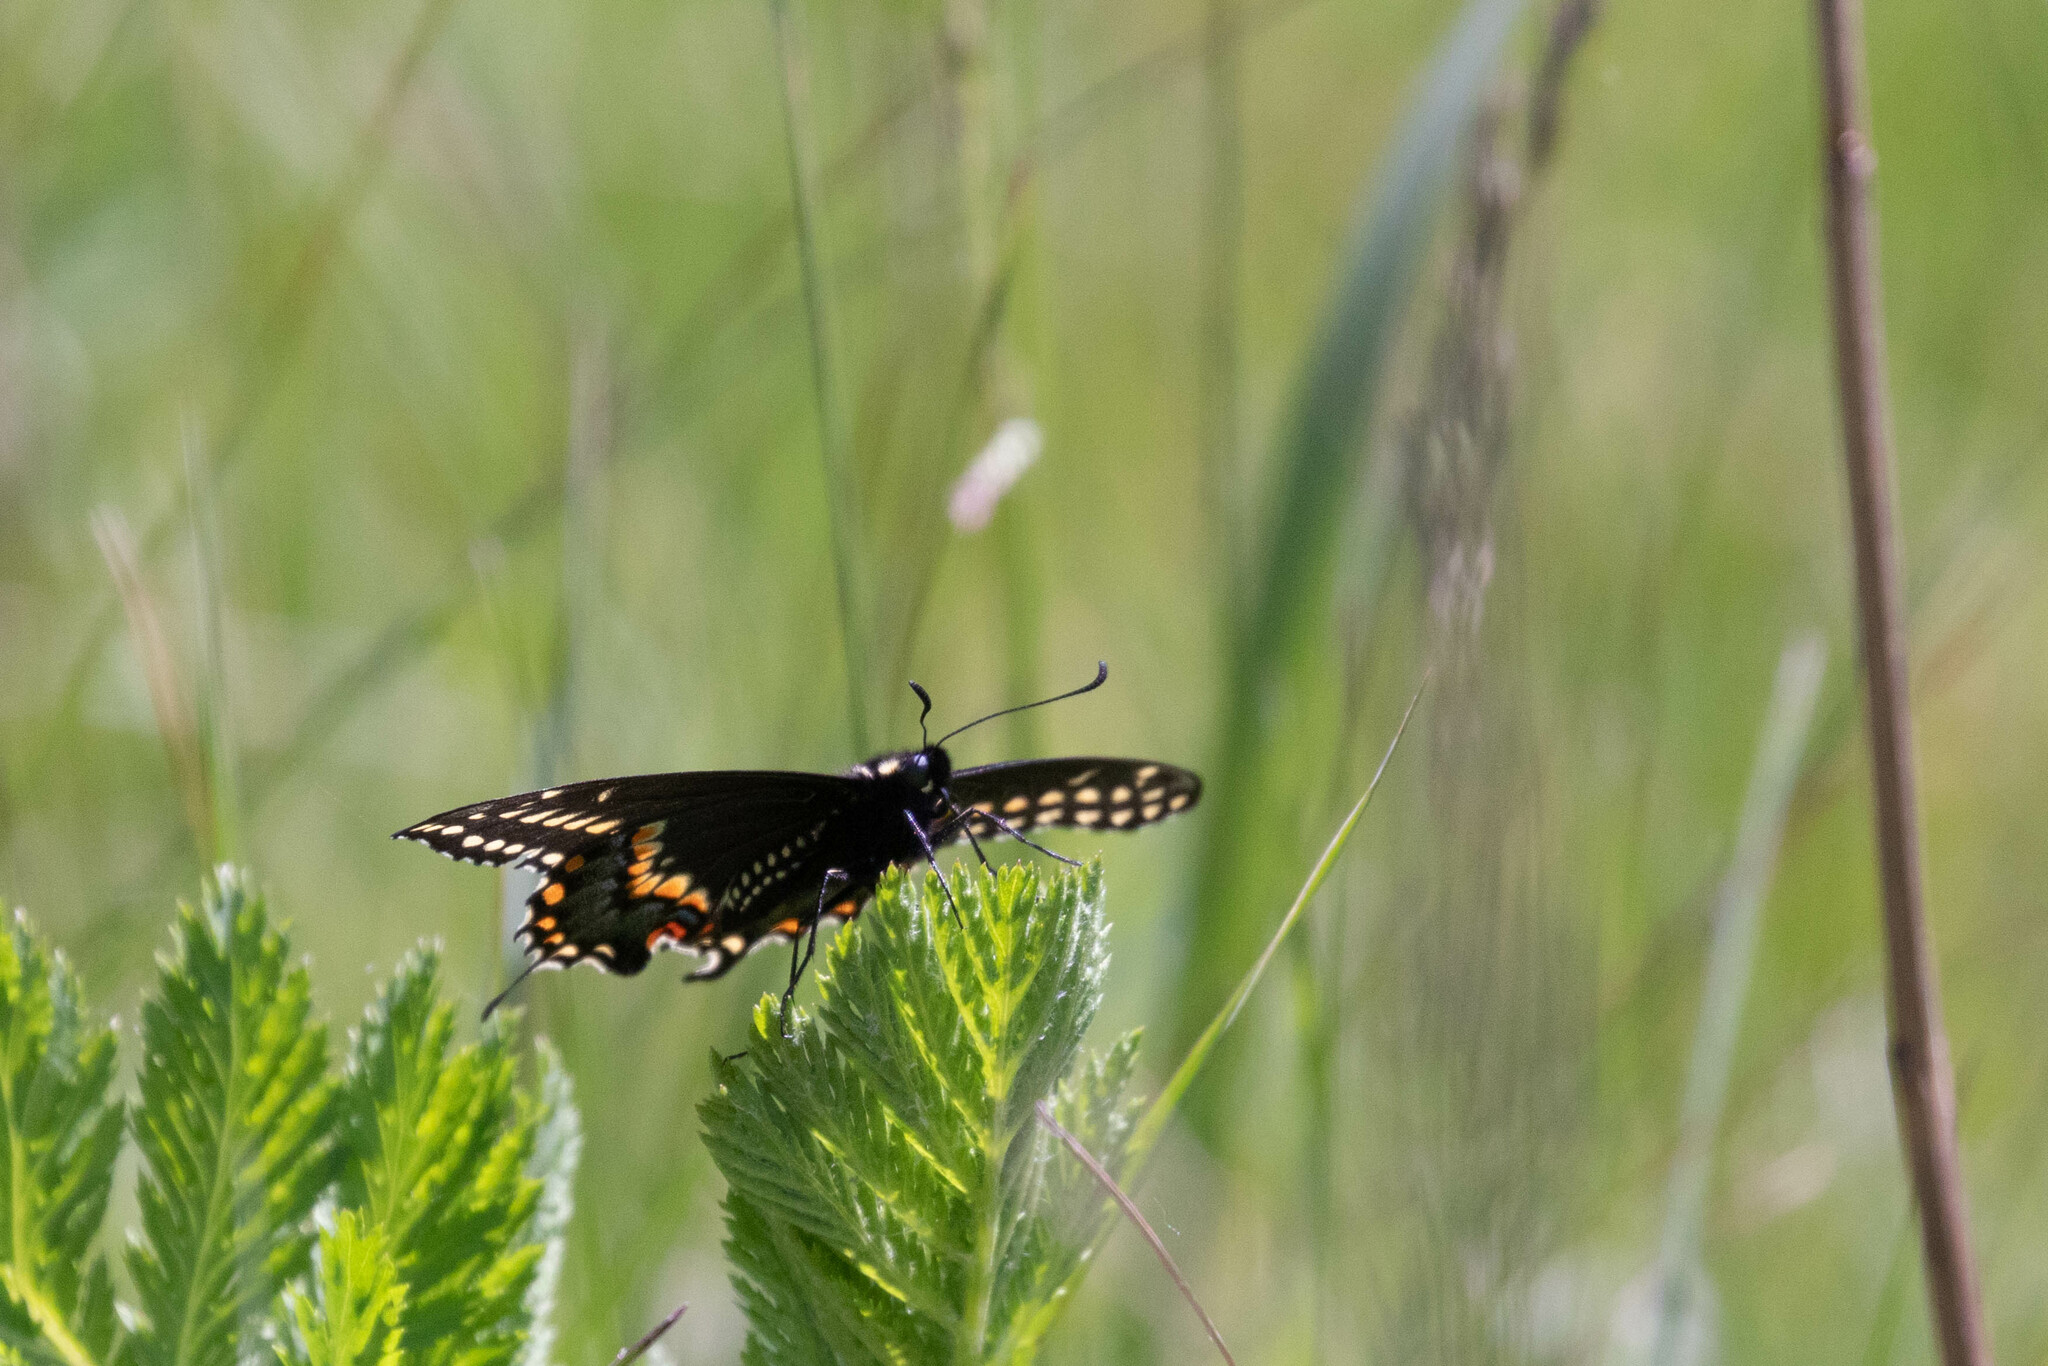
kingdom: Animalia
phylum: Arthropoda
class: Insecta
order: Lepidoptera
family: Papilionidae
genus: Papilio
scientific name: Papilio polyxenes
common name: Black swallowtail
